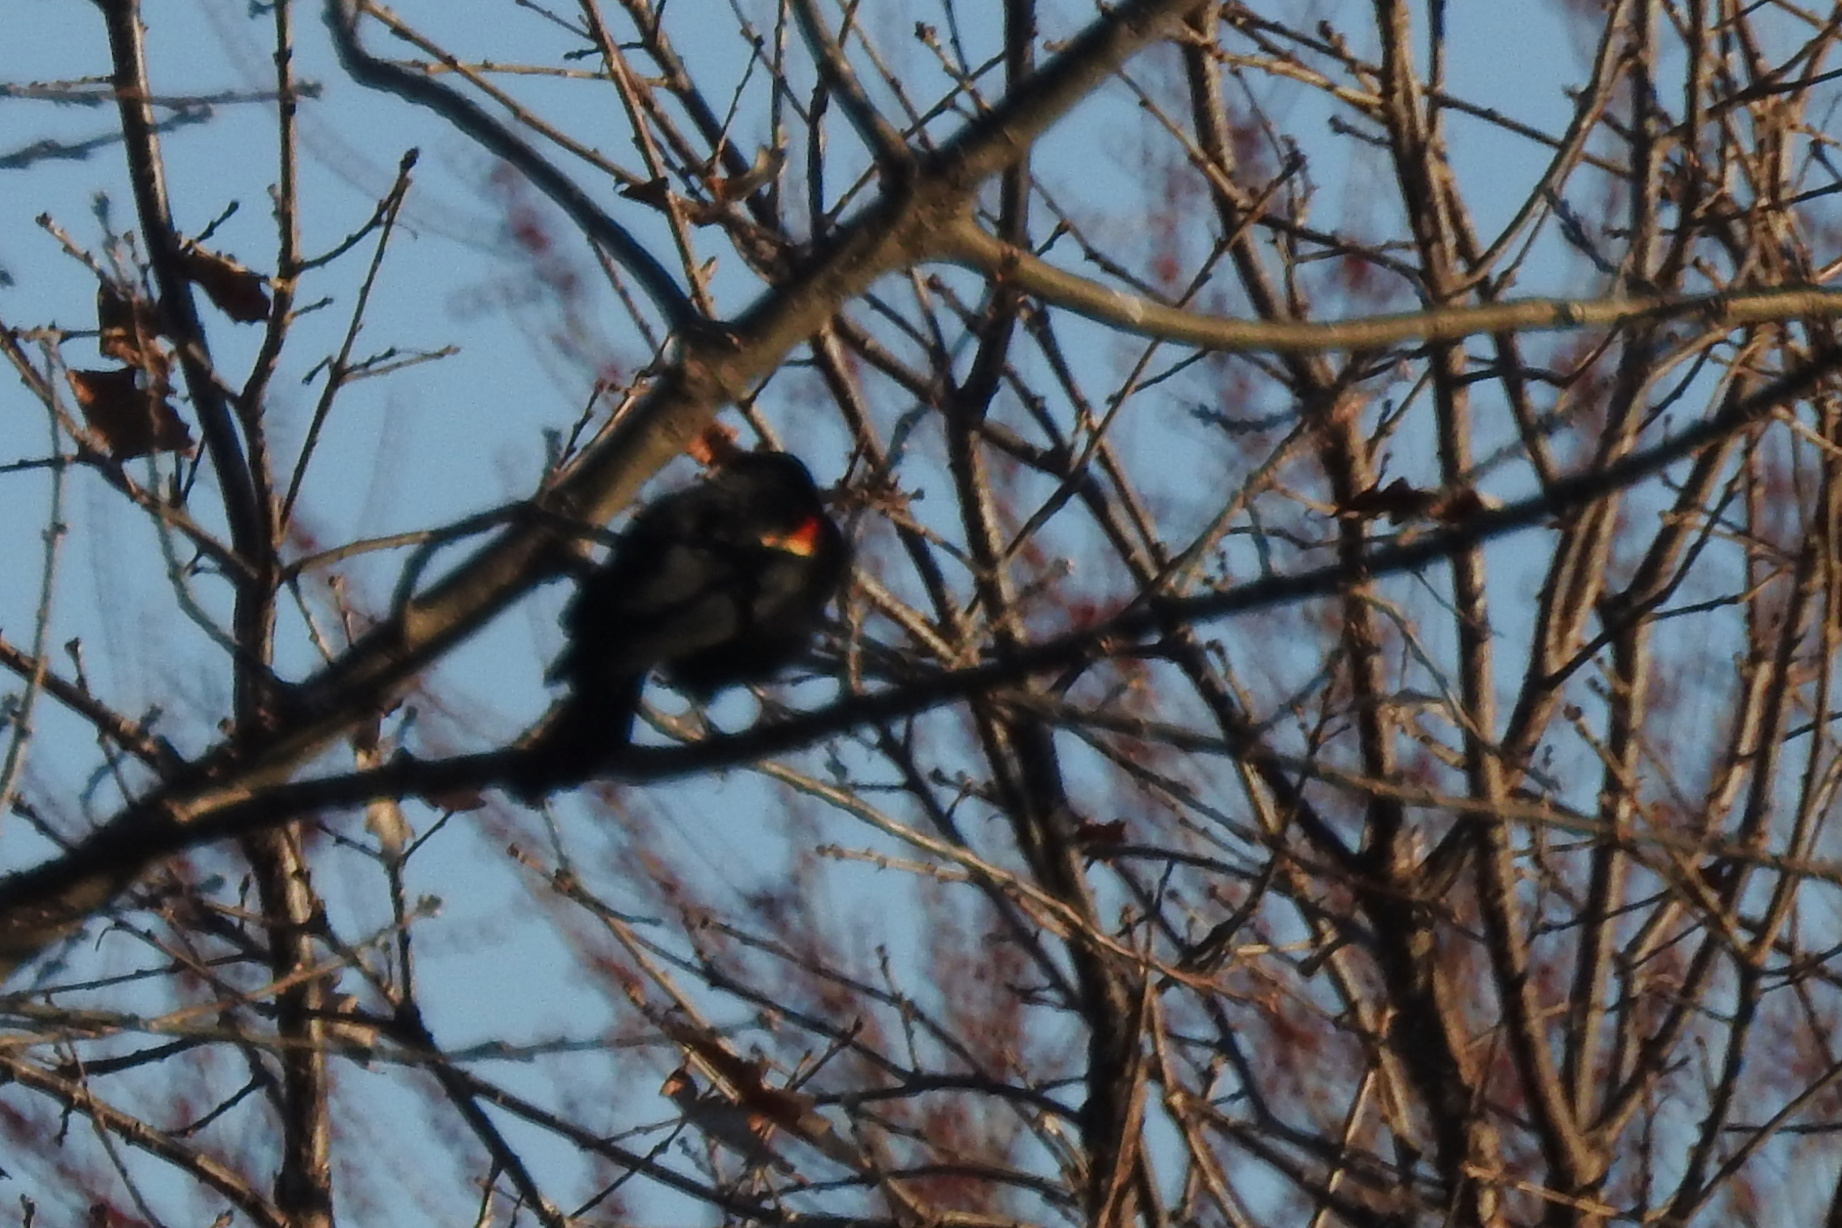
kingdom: Animalia
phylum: Chordata
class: Aves
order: Passeriformes
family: Icteridae
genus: Agelaius
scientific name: Agelaius phoeniceus
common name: Red-winged blackbird
